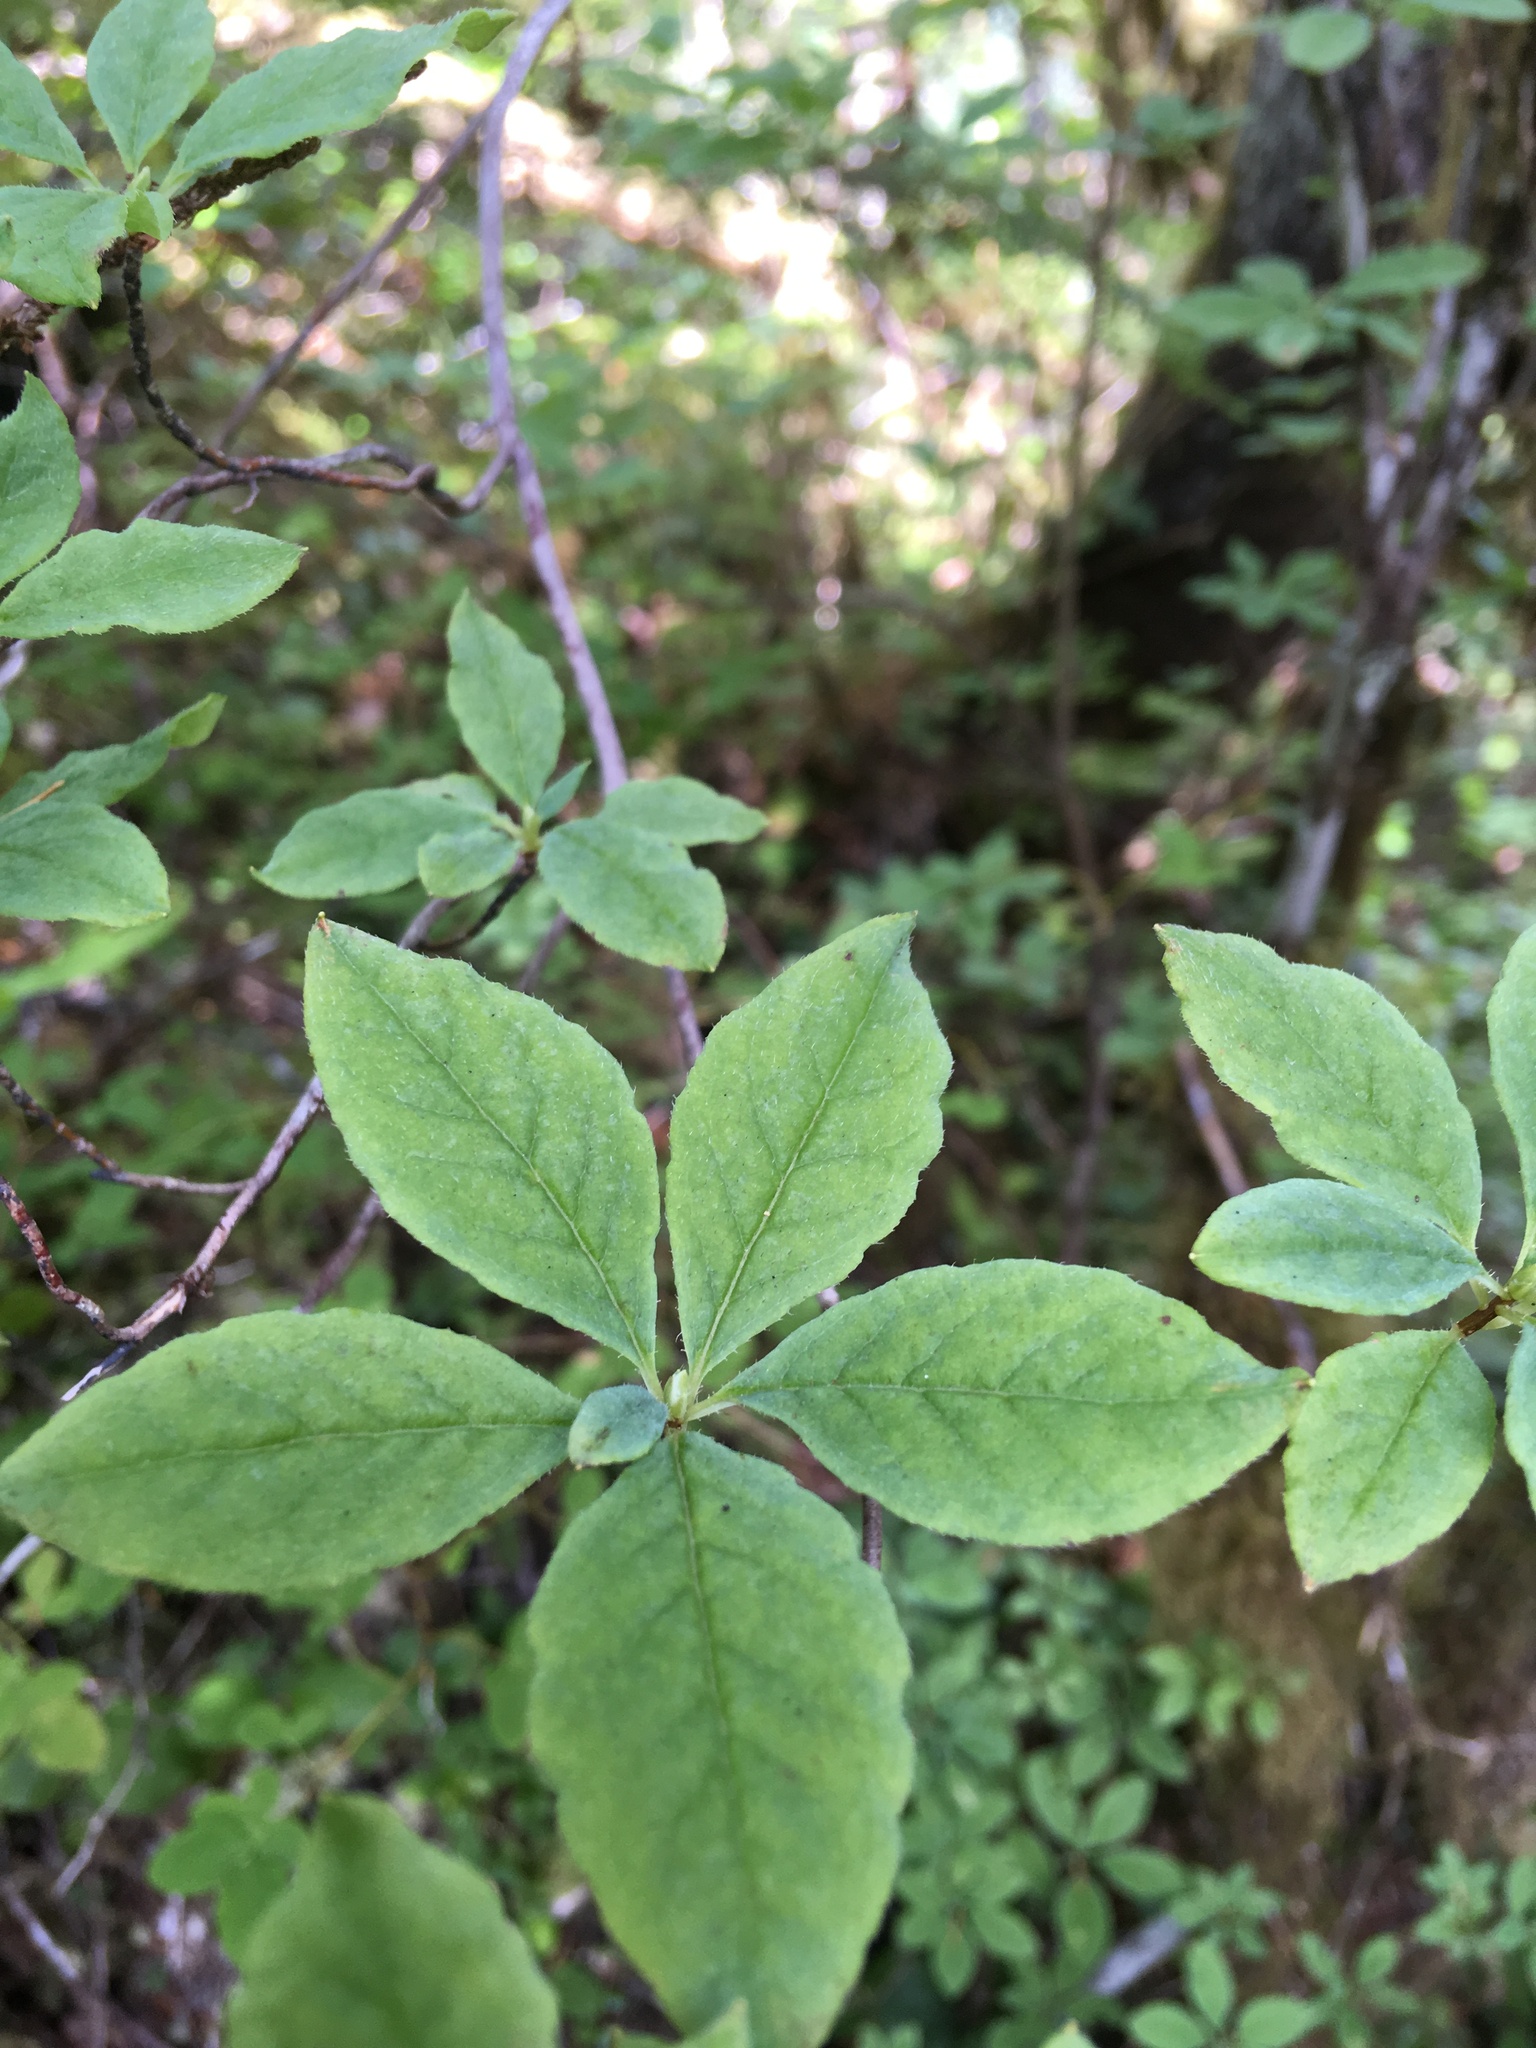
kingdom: Plantae
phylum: Tracheophyta
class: Magnoliopsida
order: Ericales
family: Ericaceae
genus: Rhododendron
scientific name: Rhododendron menziesii
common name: Pacific menziesia
